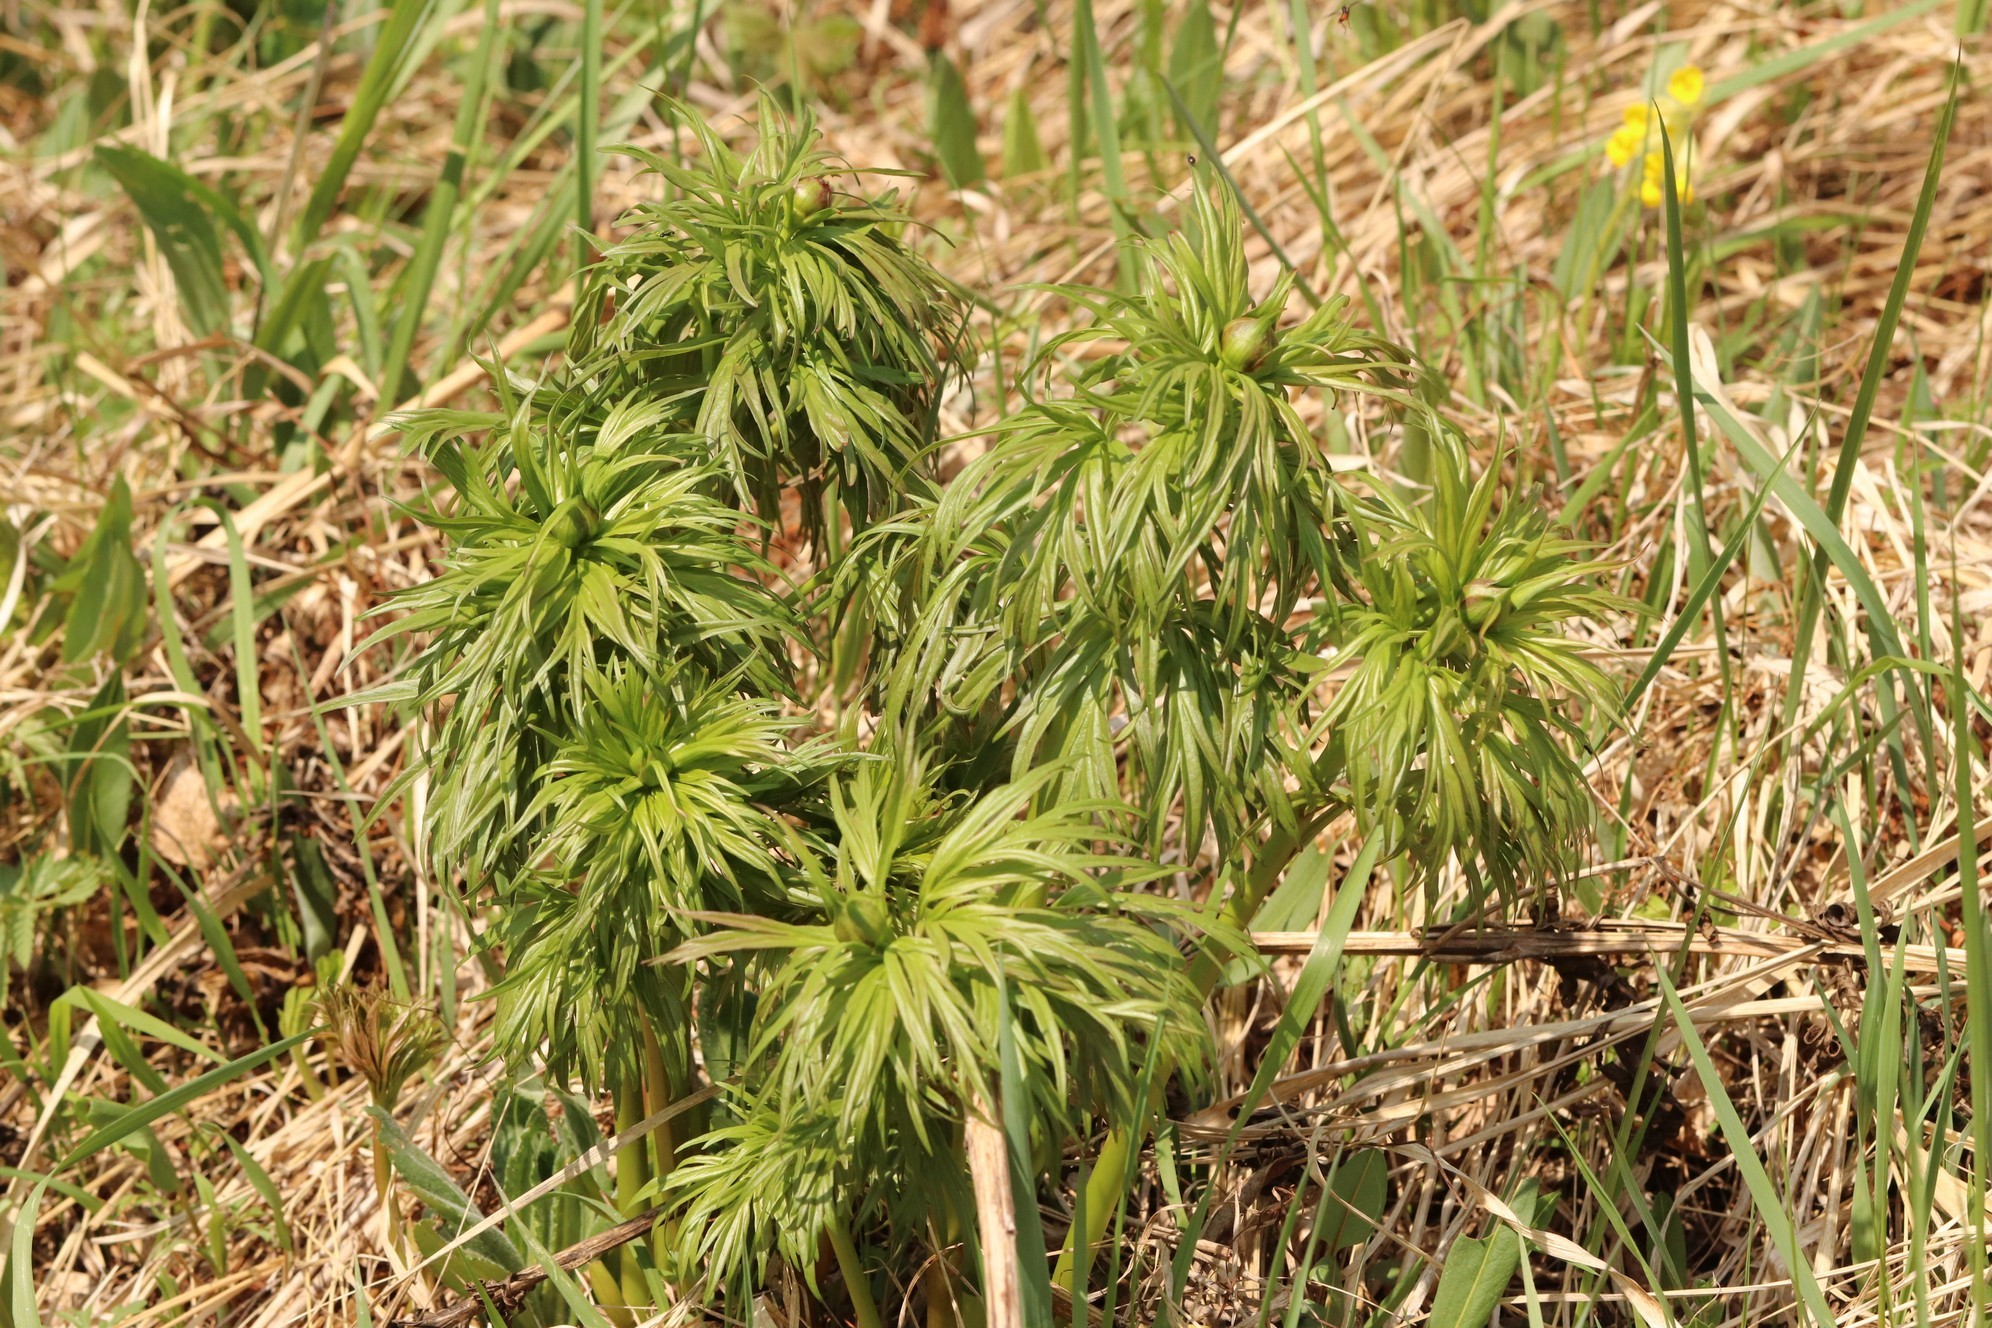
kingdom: Plantae
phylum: Tracheophyta
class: Magnoliopsida
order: Saxifragales
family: Paeoniaceae
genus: Paeonia
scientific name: Paeonia anomala
